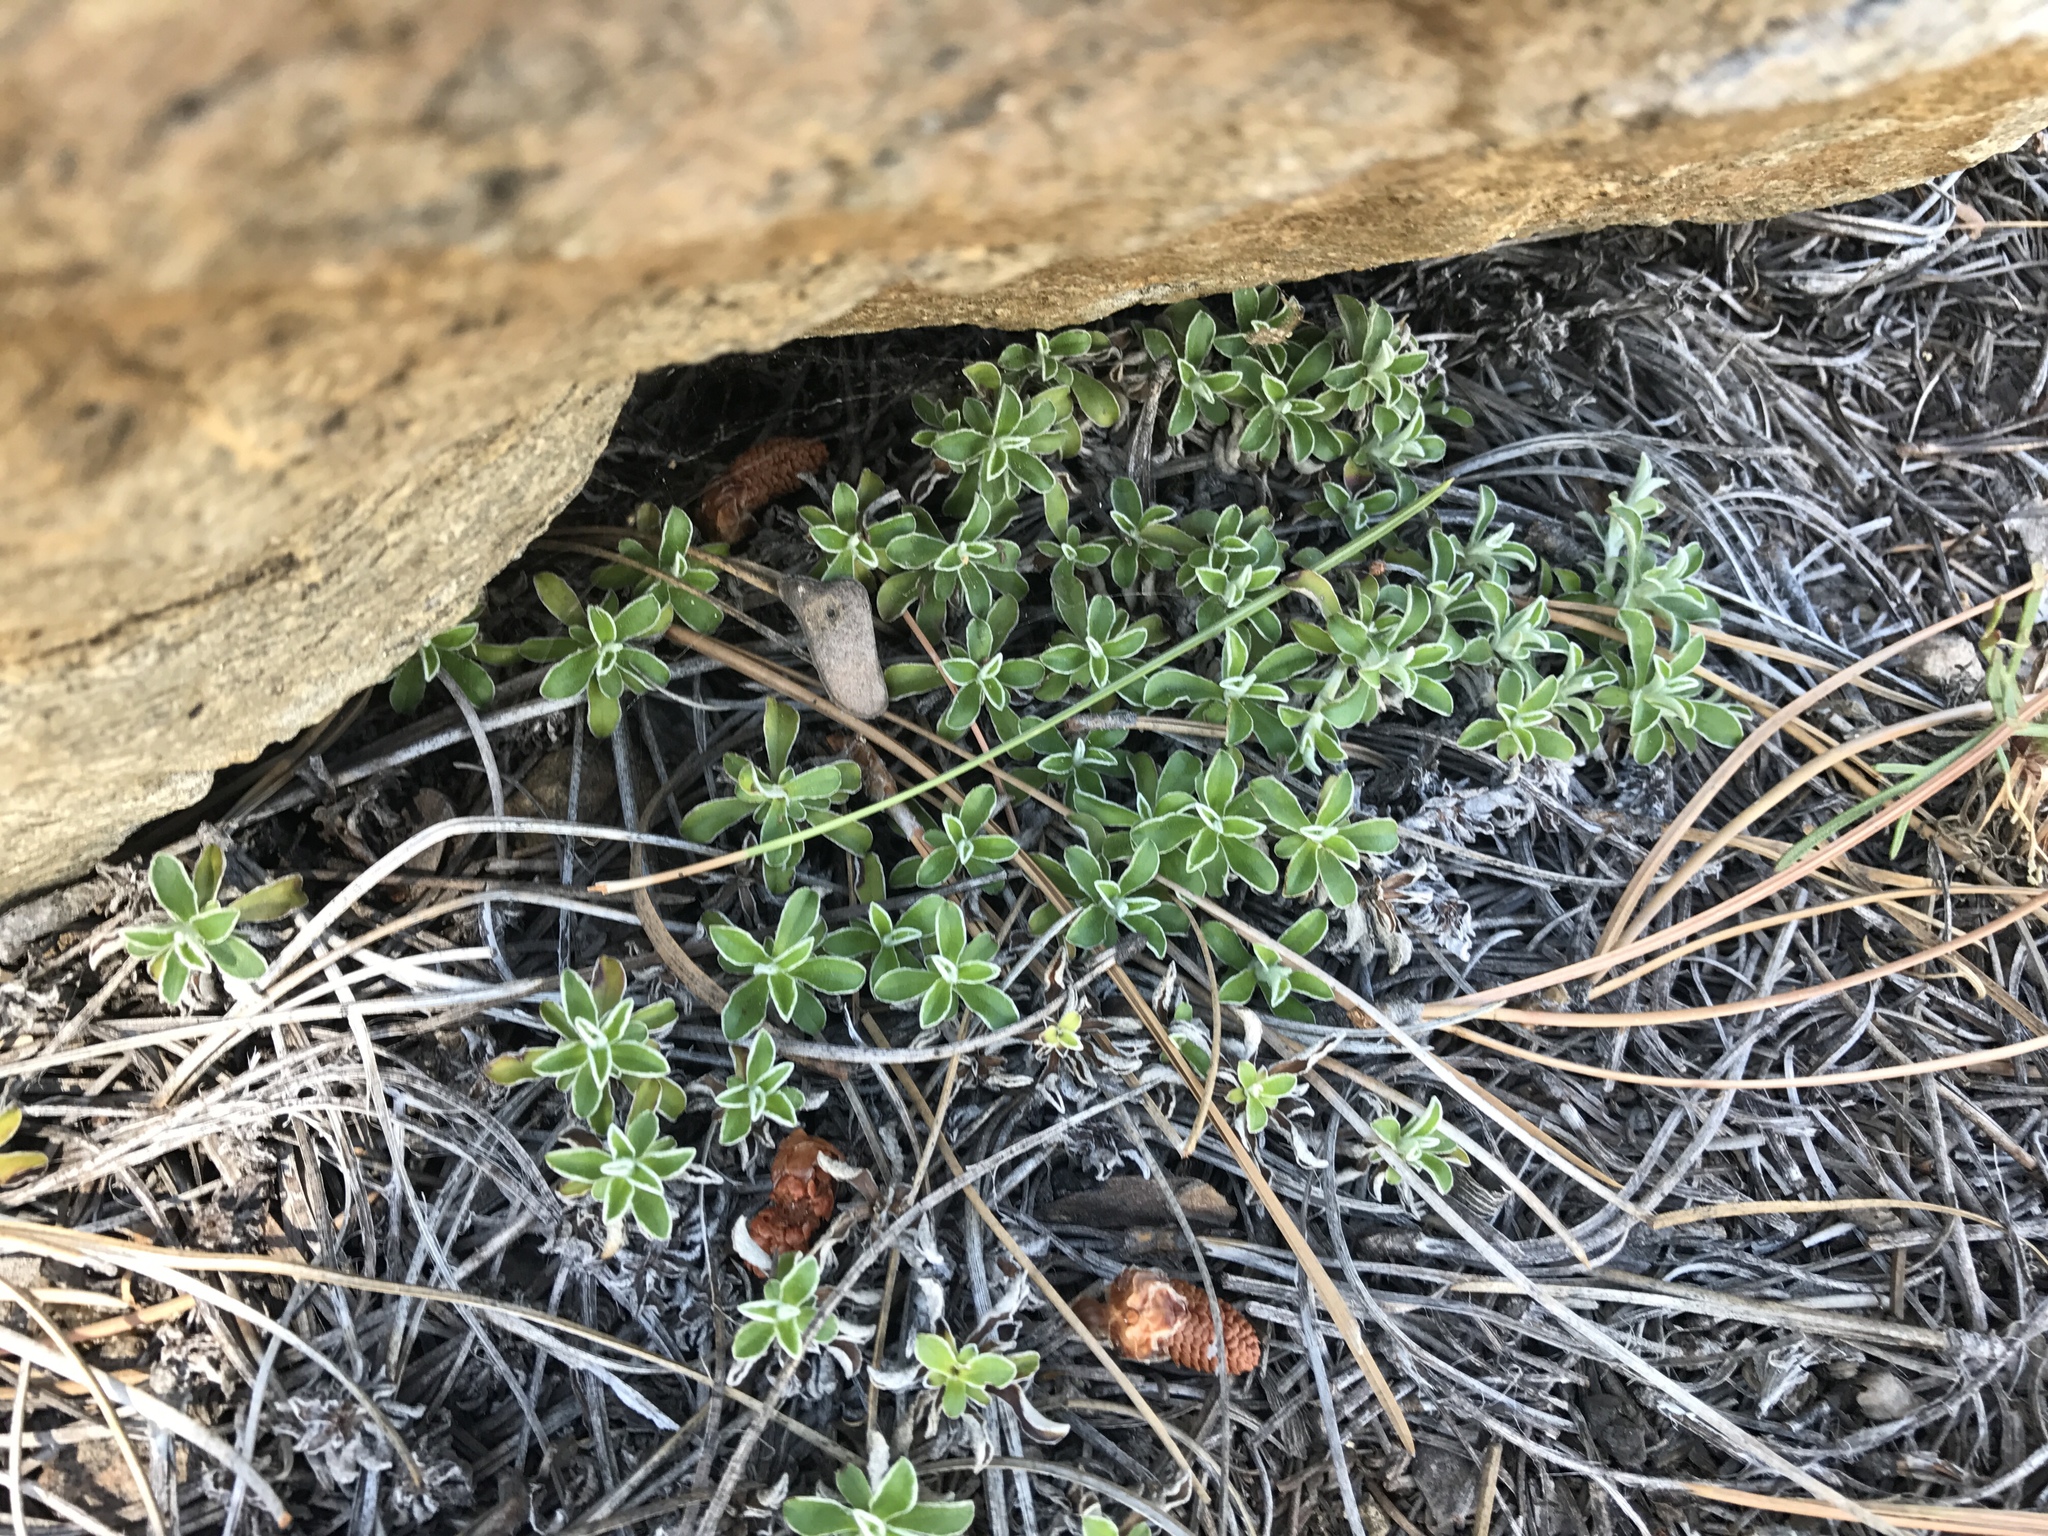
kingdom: Plantae
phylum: Tracheophyta
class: Magnoliopsida
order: Asterales
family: Asteraceae
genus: Antennaria
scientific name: Antennaria marginata
